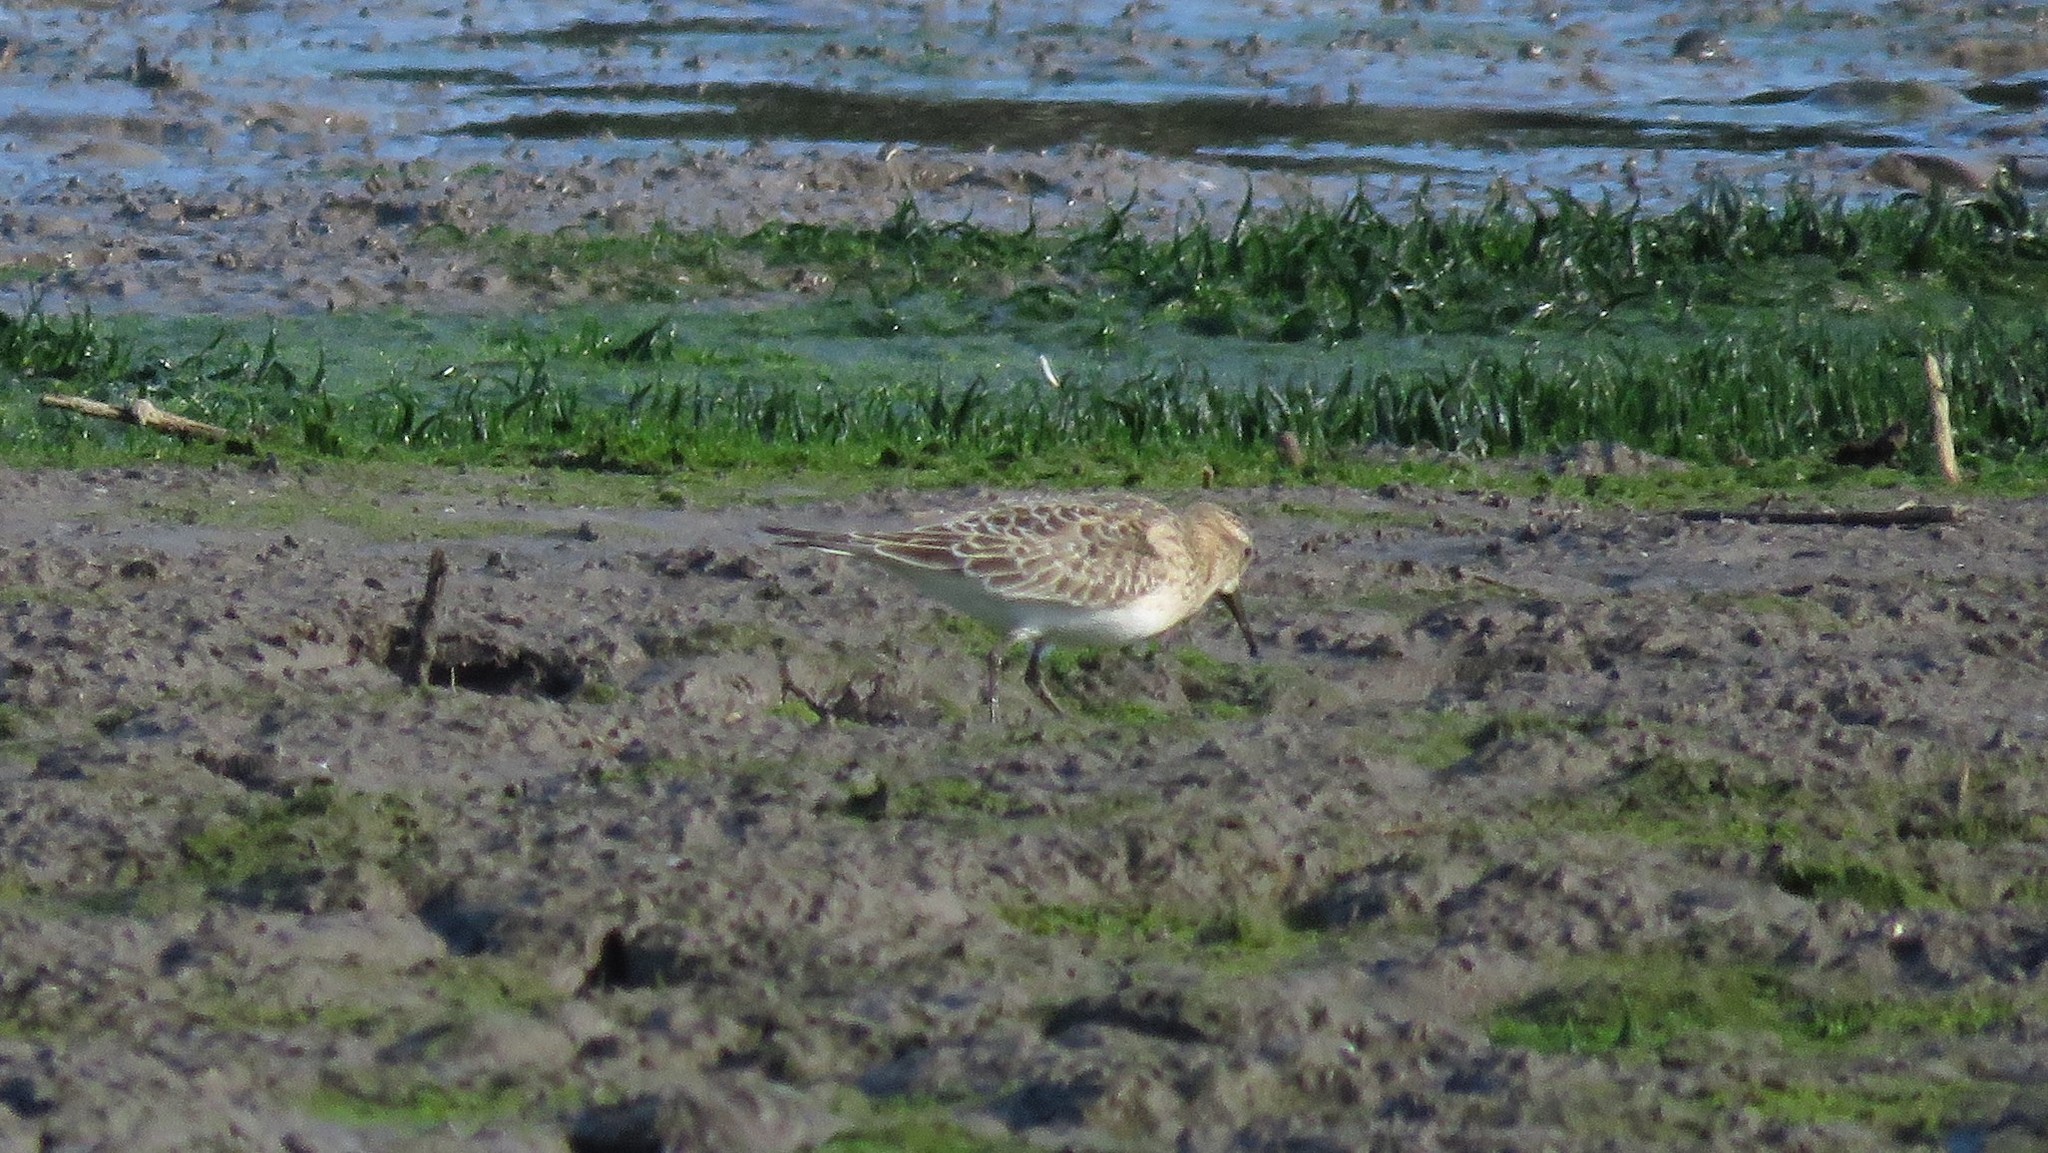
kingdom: Animalia
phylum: Chordata
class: Aves
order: Charadriiformes
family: Scolopacidae
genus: Calidris
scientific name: Calidris bairdii
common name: Baird's sandpiper
